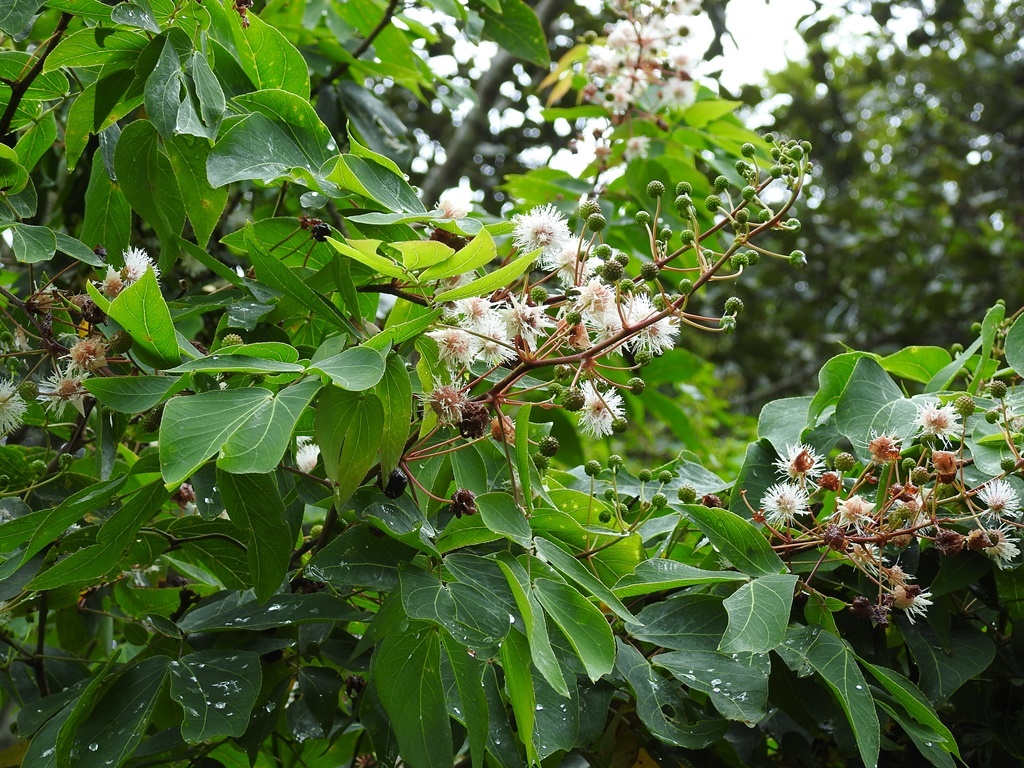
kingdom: Plantae
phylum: Tracheophyta
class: Magnoliopsida
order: Fabales
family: Fabaceae
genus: Mimosa
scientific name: Mimosa lactiflua
